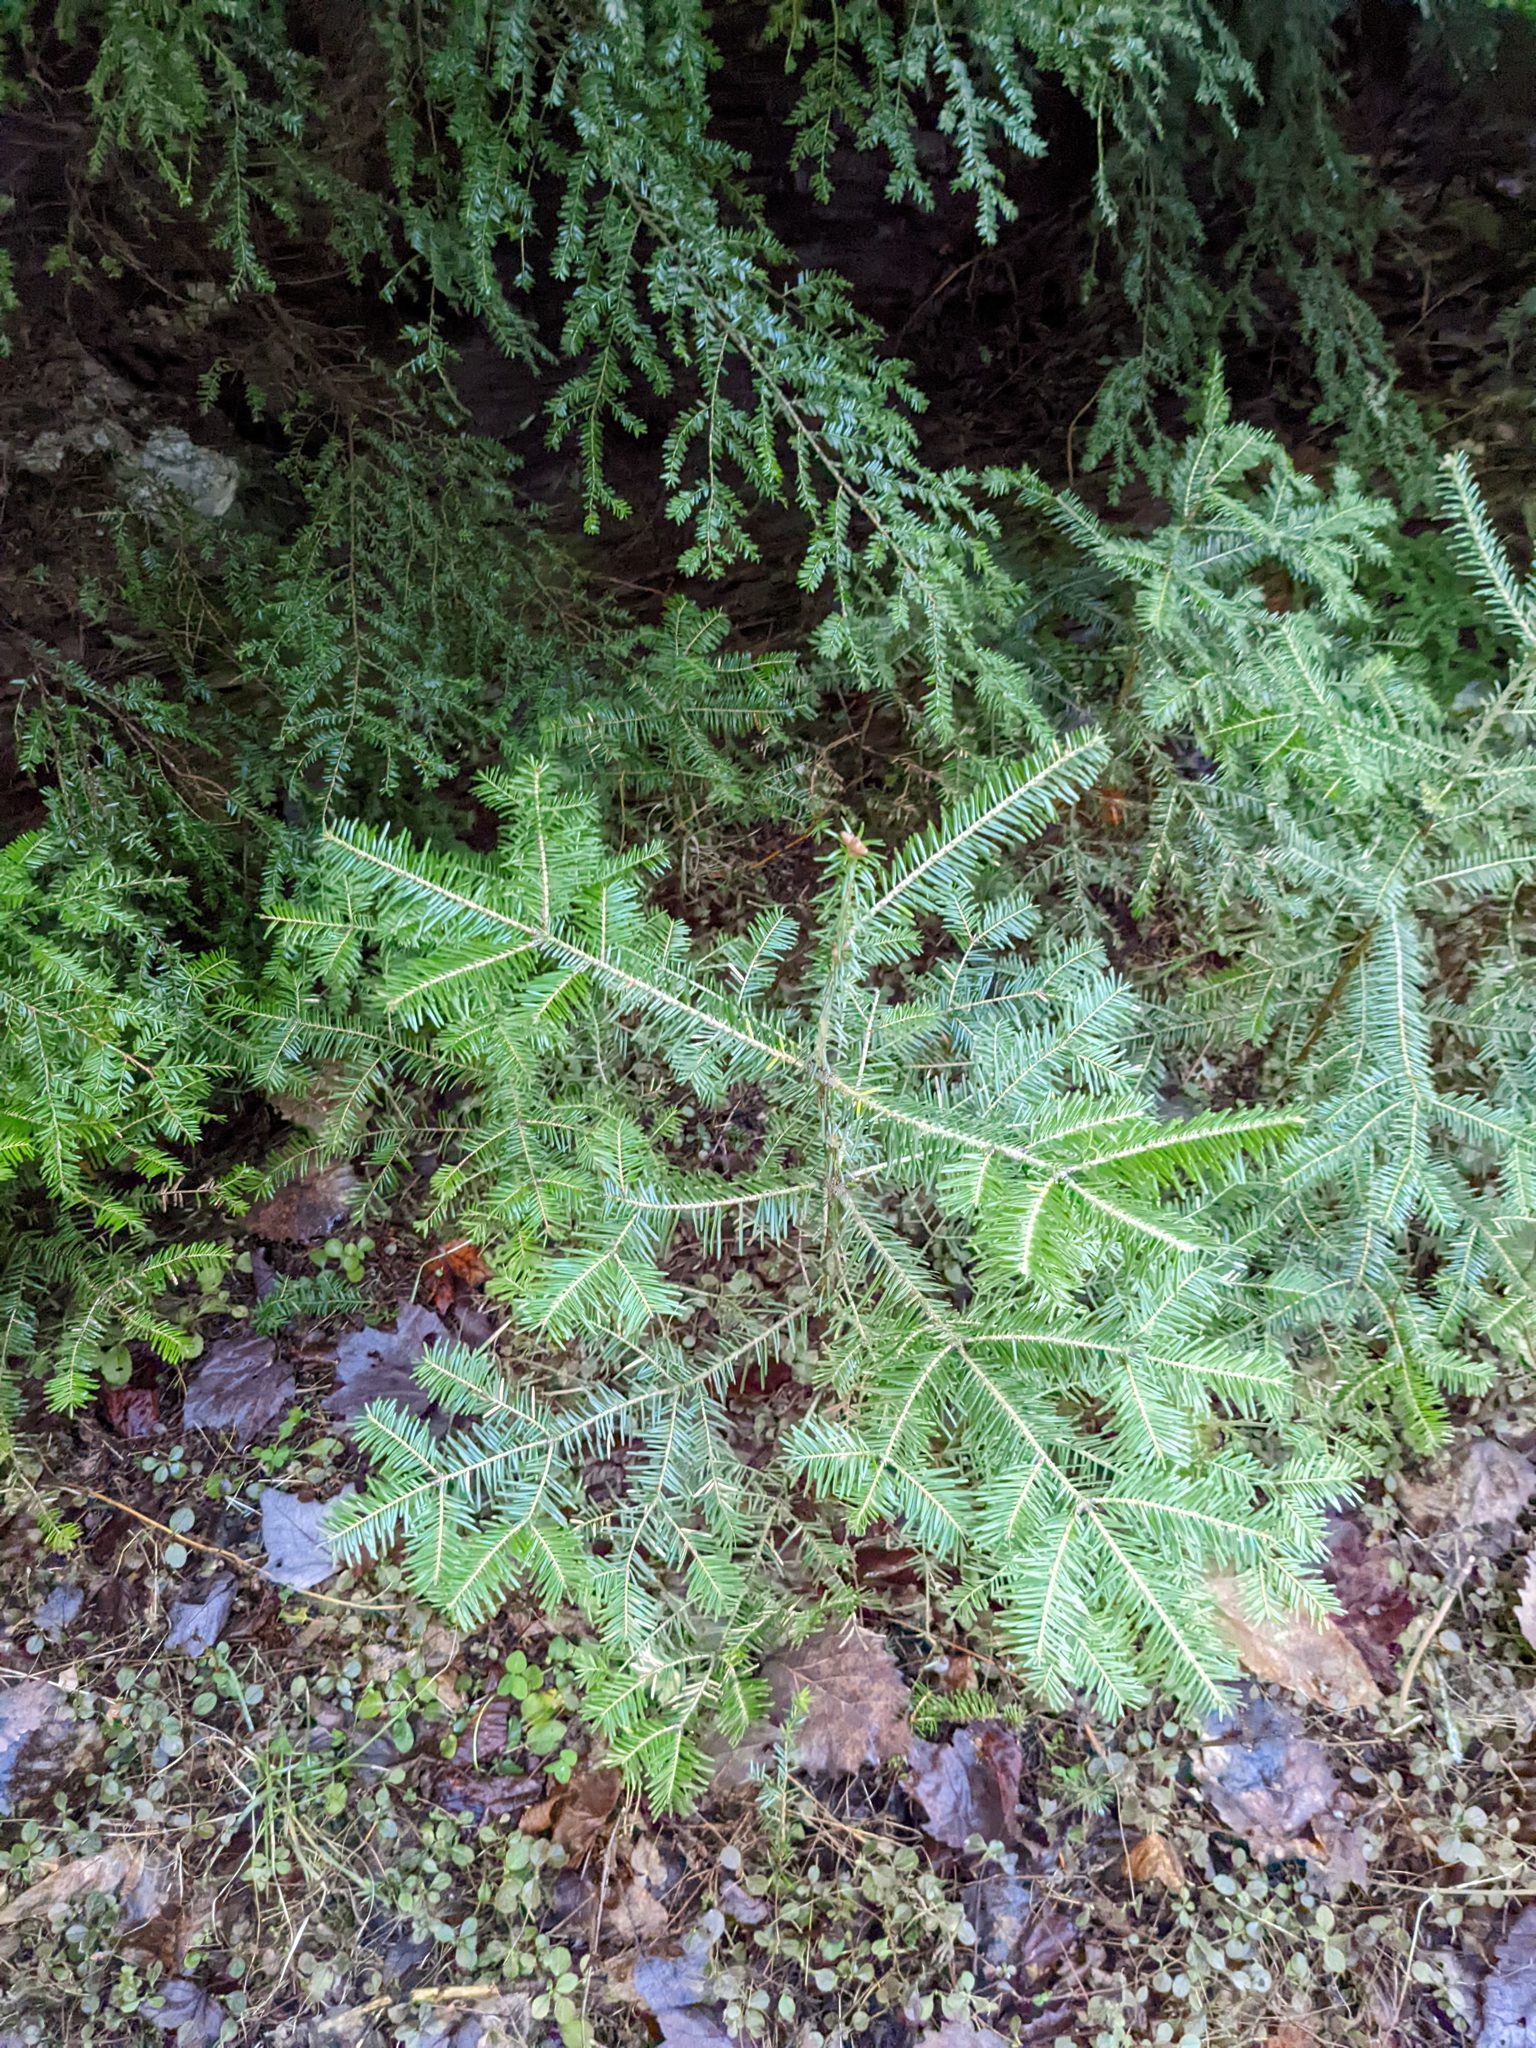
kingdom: Plantae
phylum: Tracheophyta
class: Pinopsida
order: Pinales
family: Pinaceae
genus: Abies
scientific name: Abies balsamea
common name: Balsam fir
